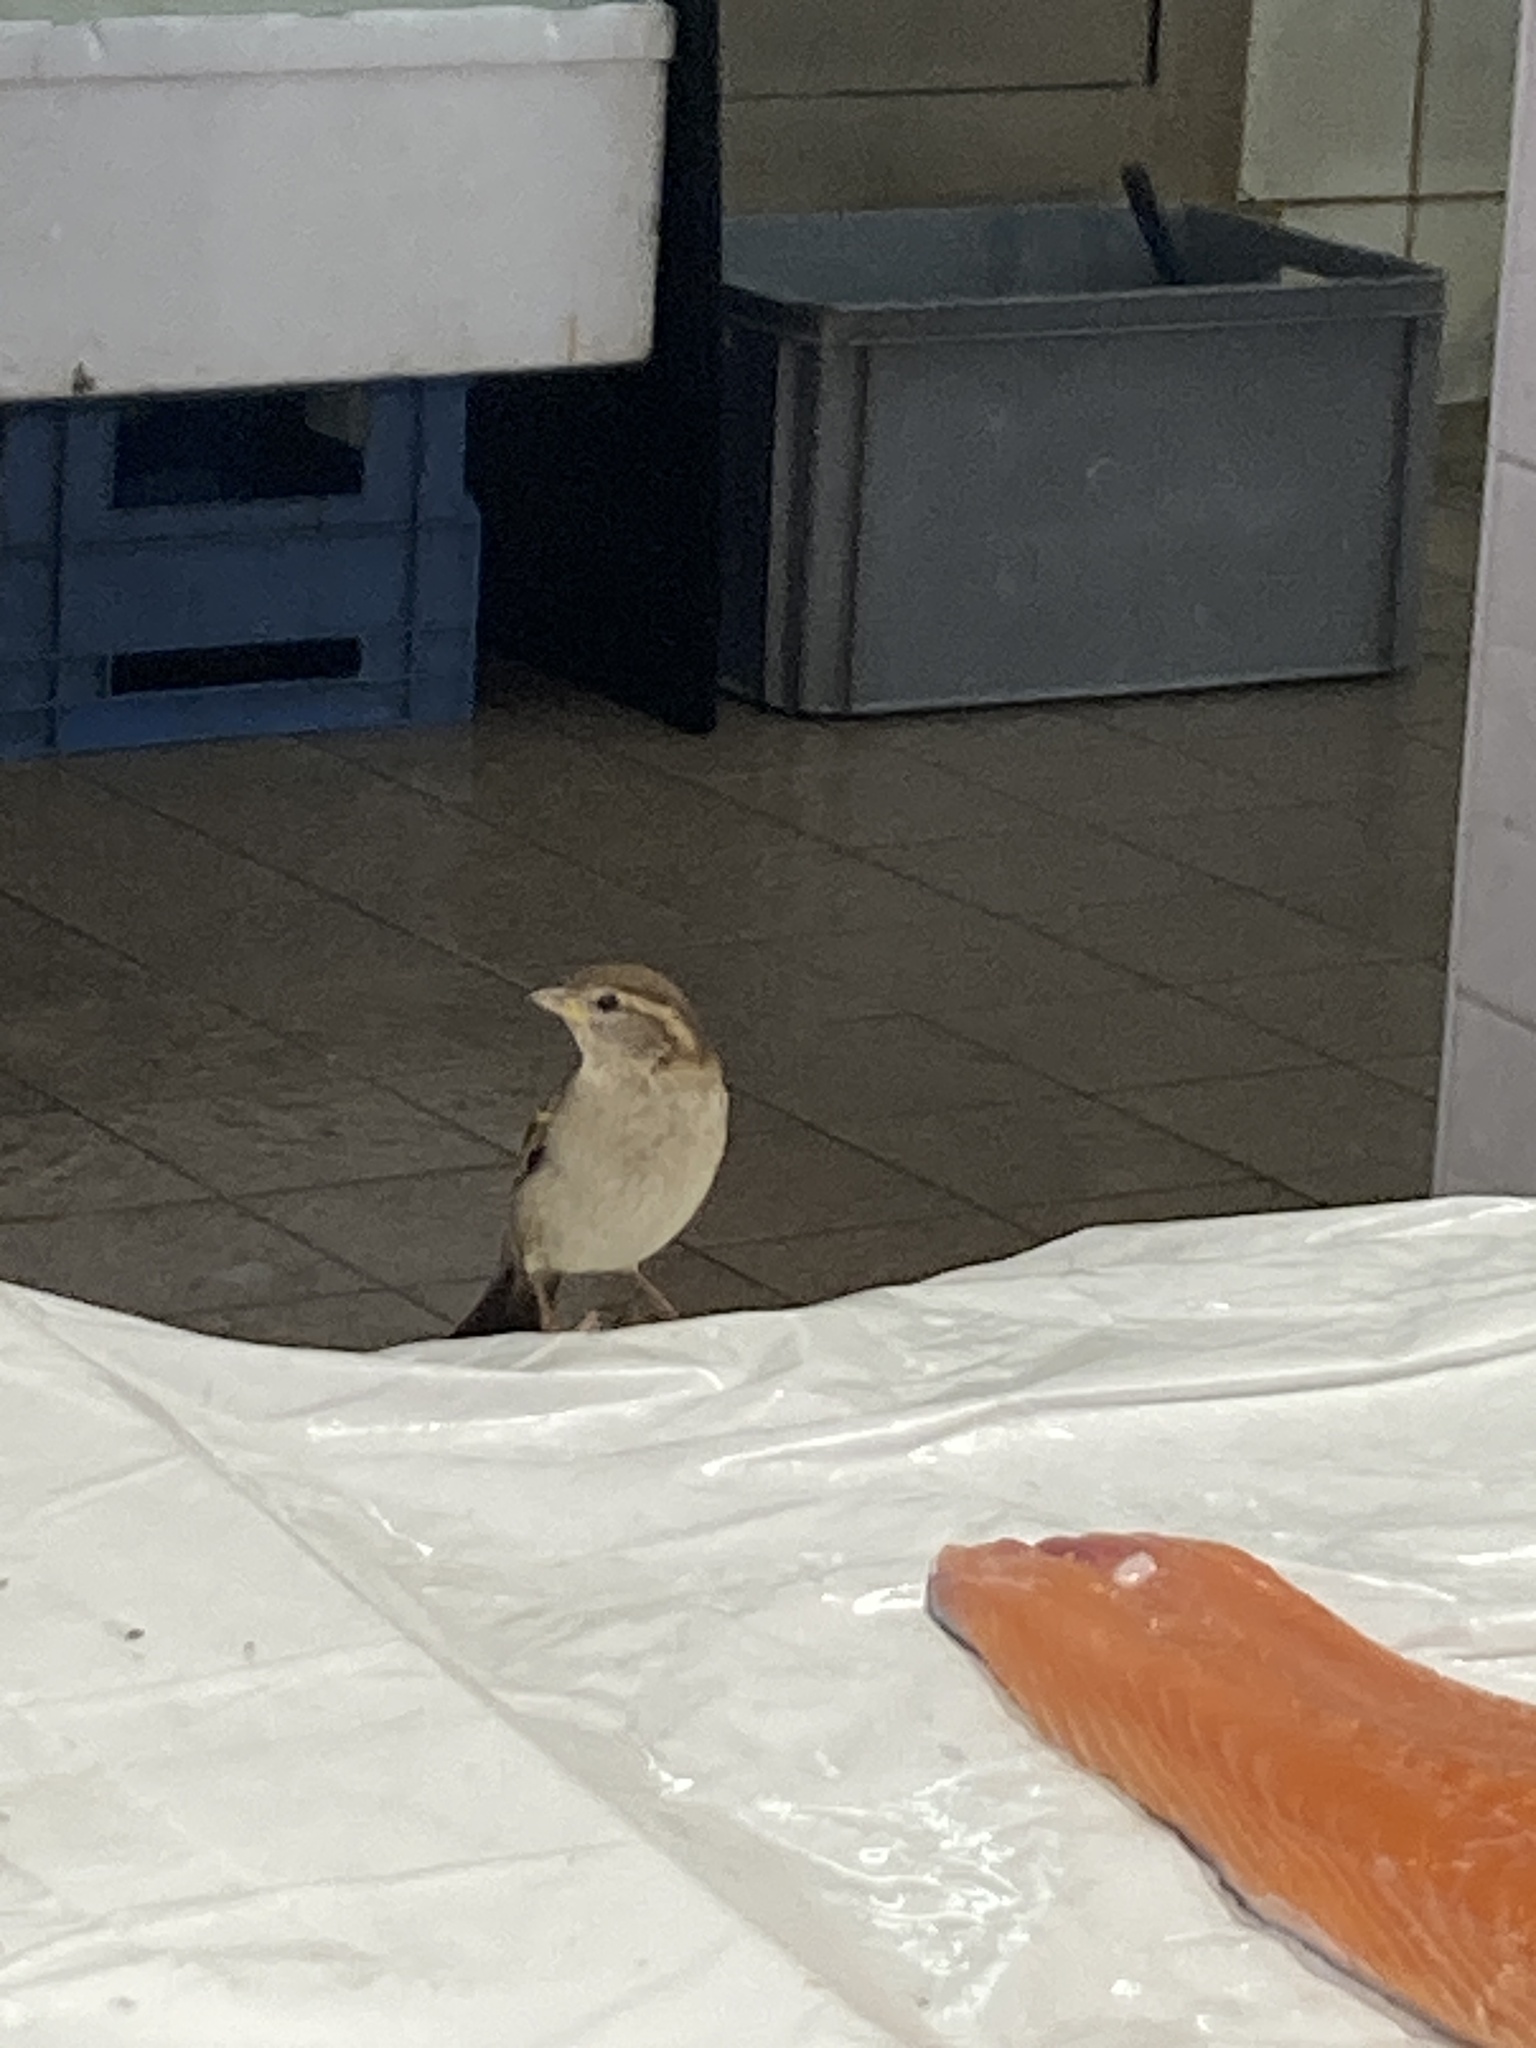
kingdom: Animalia
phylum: Chordata
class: Aves
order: Passeriformes
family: Passeridae
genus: Passer
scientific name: Passer italiae
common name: Italian sparrow
